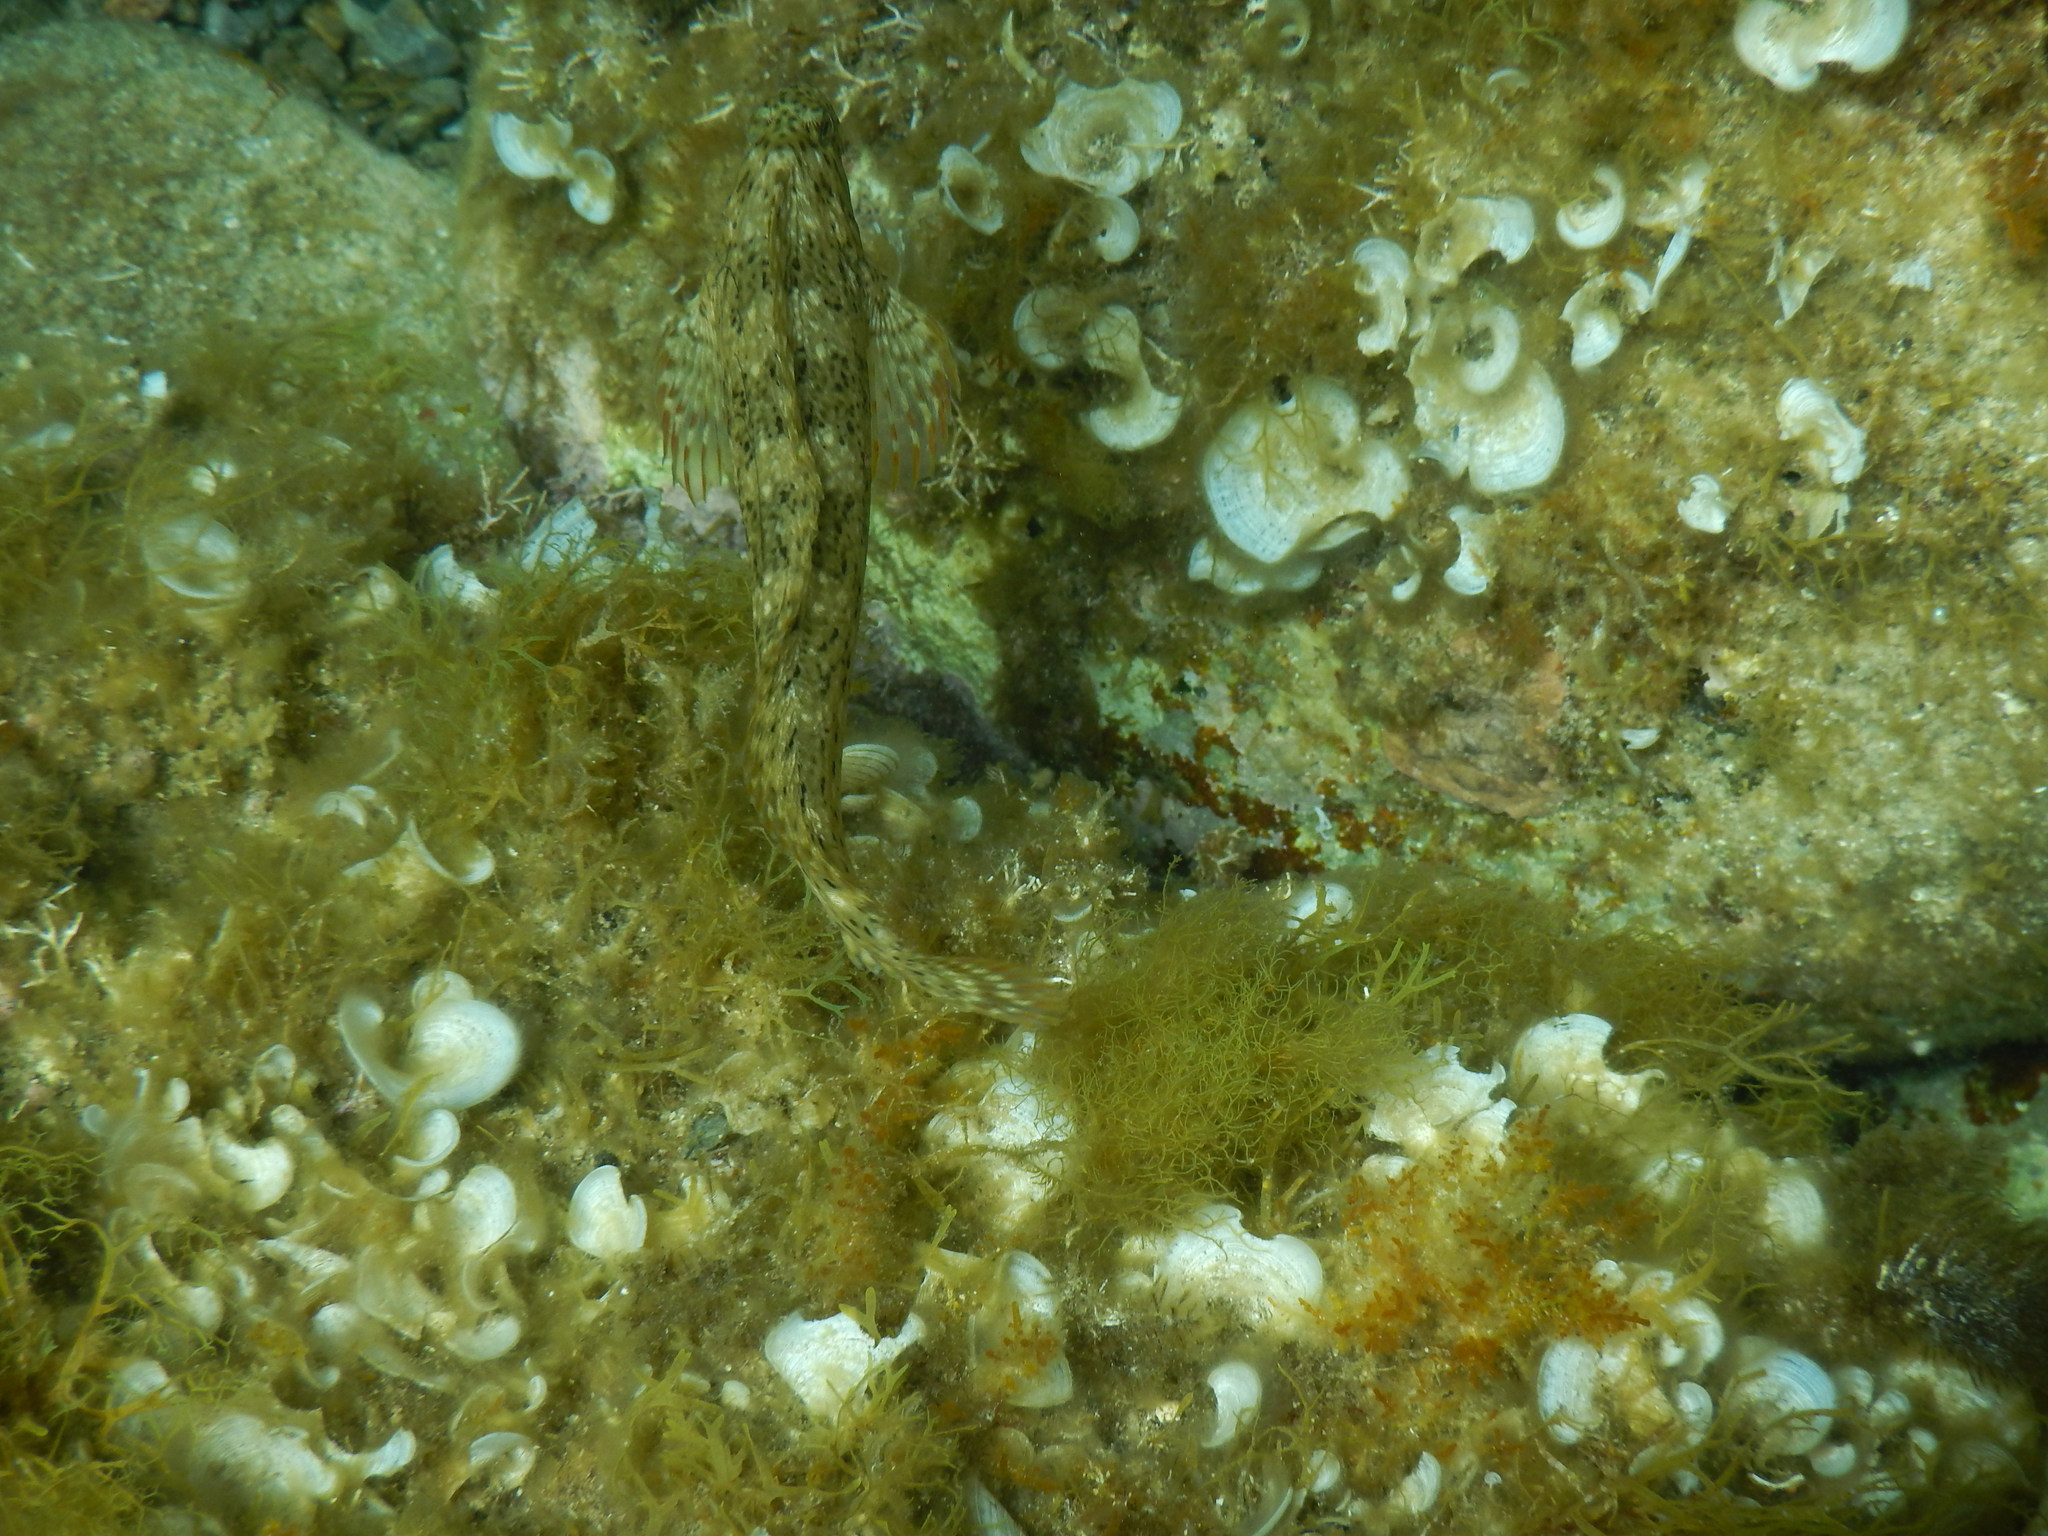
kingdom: Animalia
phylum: Chordata
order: Perciformes
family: Blenniidae
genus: Parablennius
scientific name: Parablennius sanguinolentus
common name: Black sea blenny
